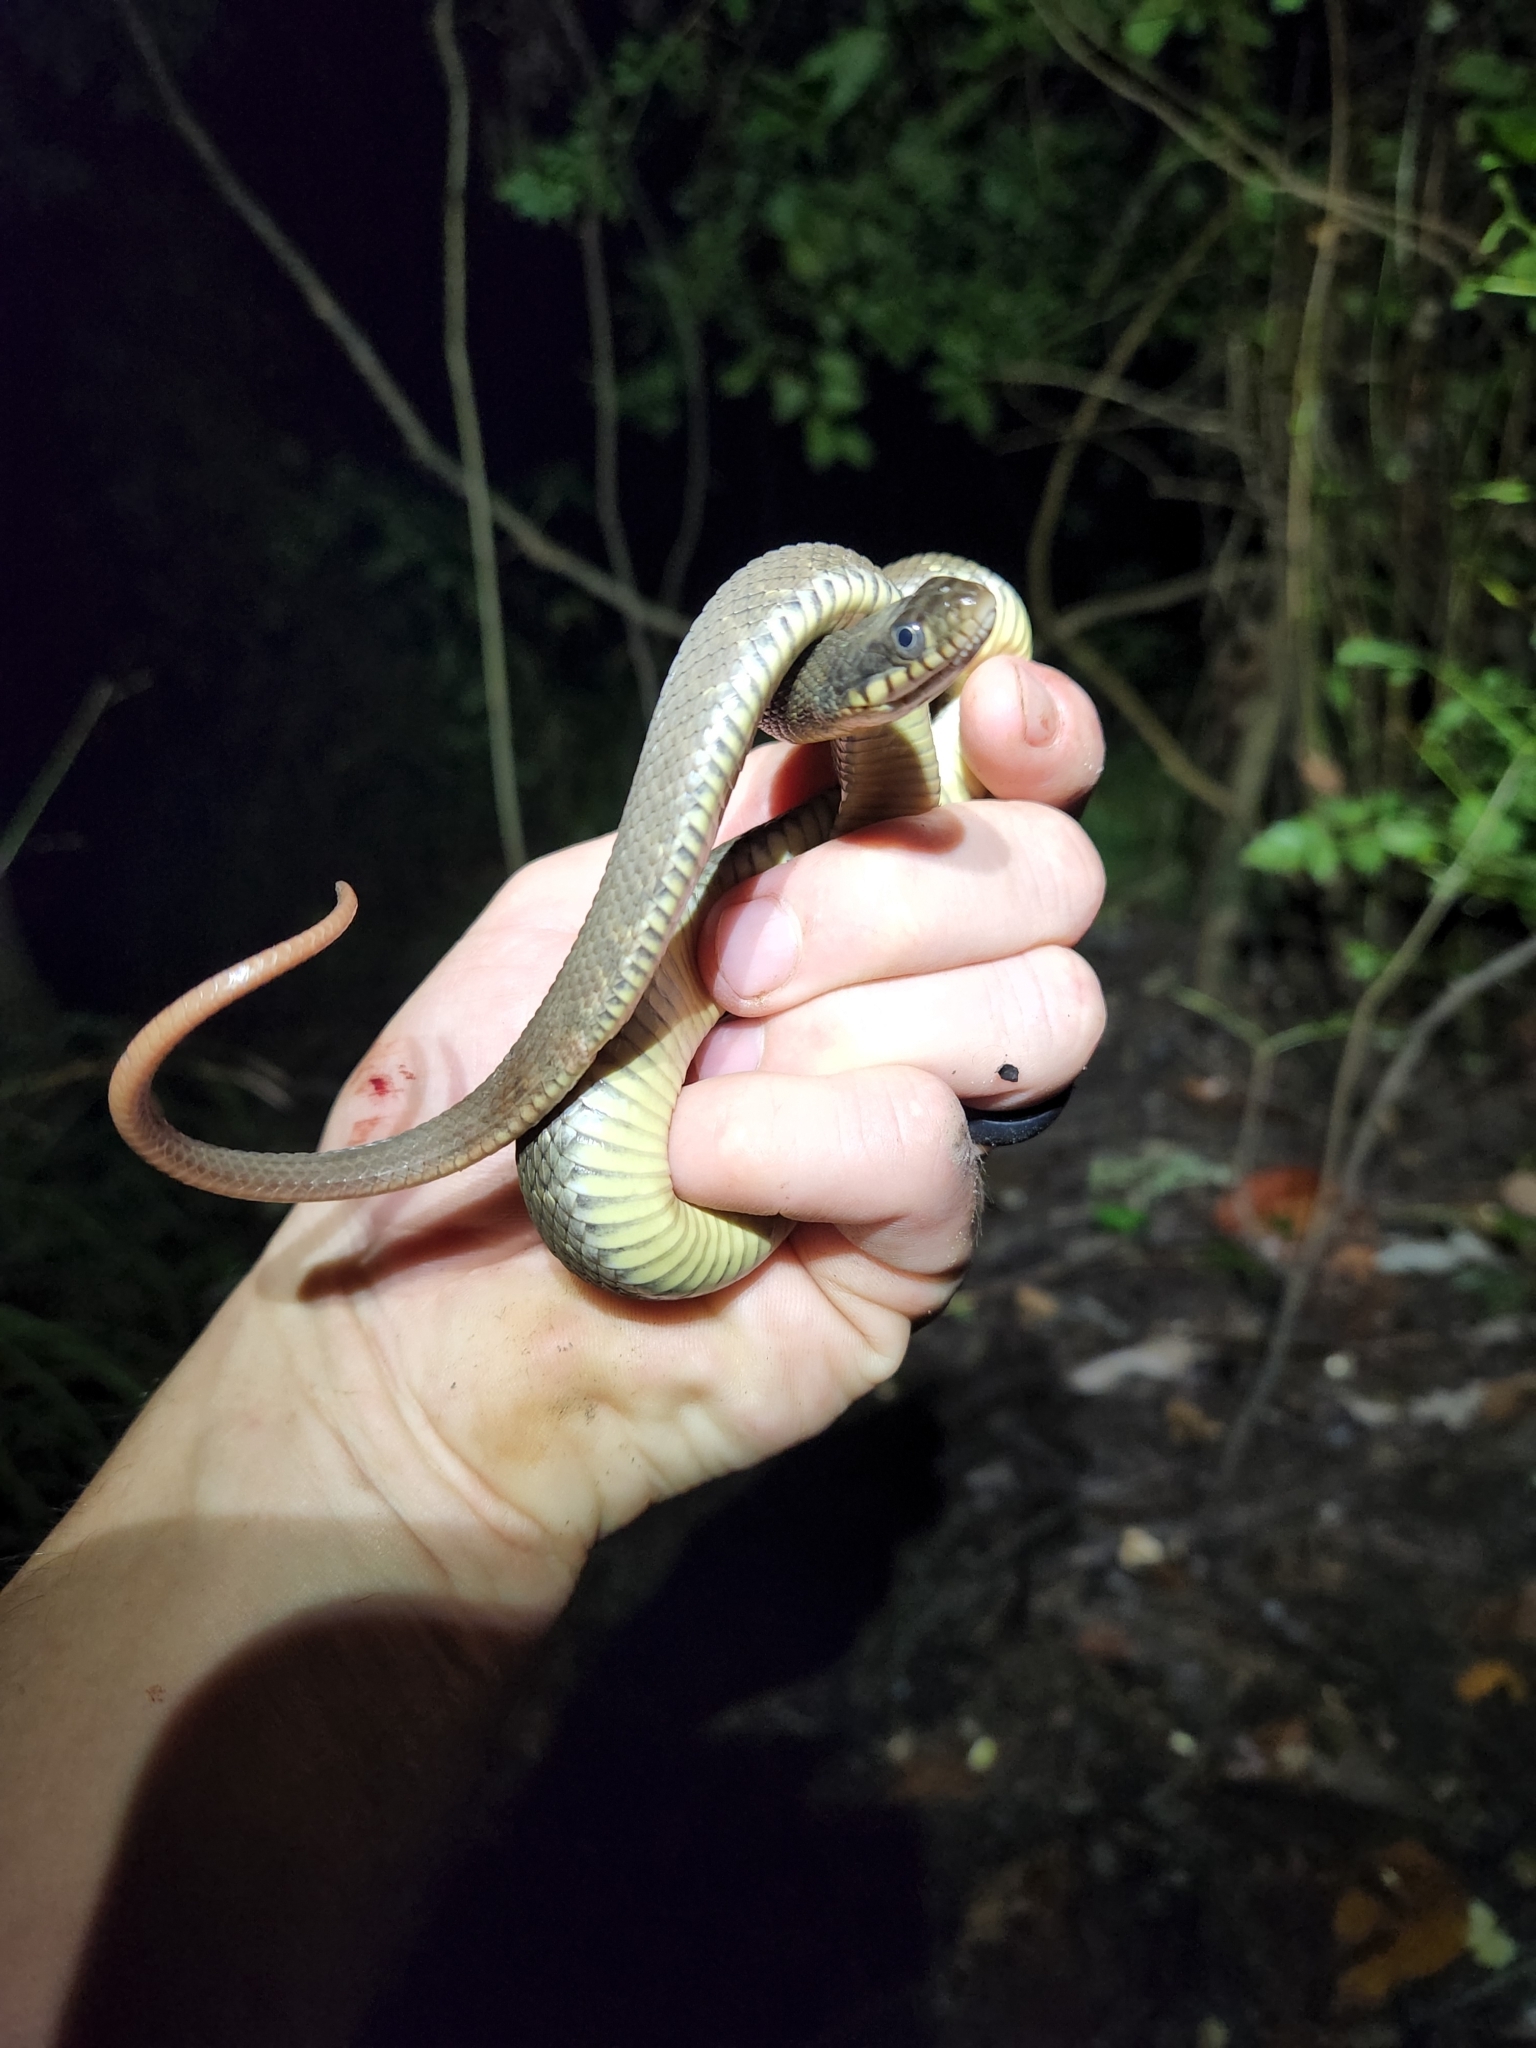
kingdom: Animalia
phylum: Chordata
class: Squamata
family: Colubridae
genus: Nerodia
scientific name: Nerodia erythrogaster
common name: Plainbelly water snake
